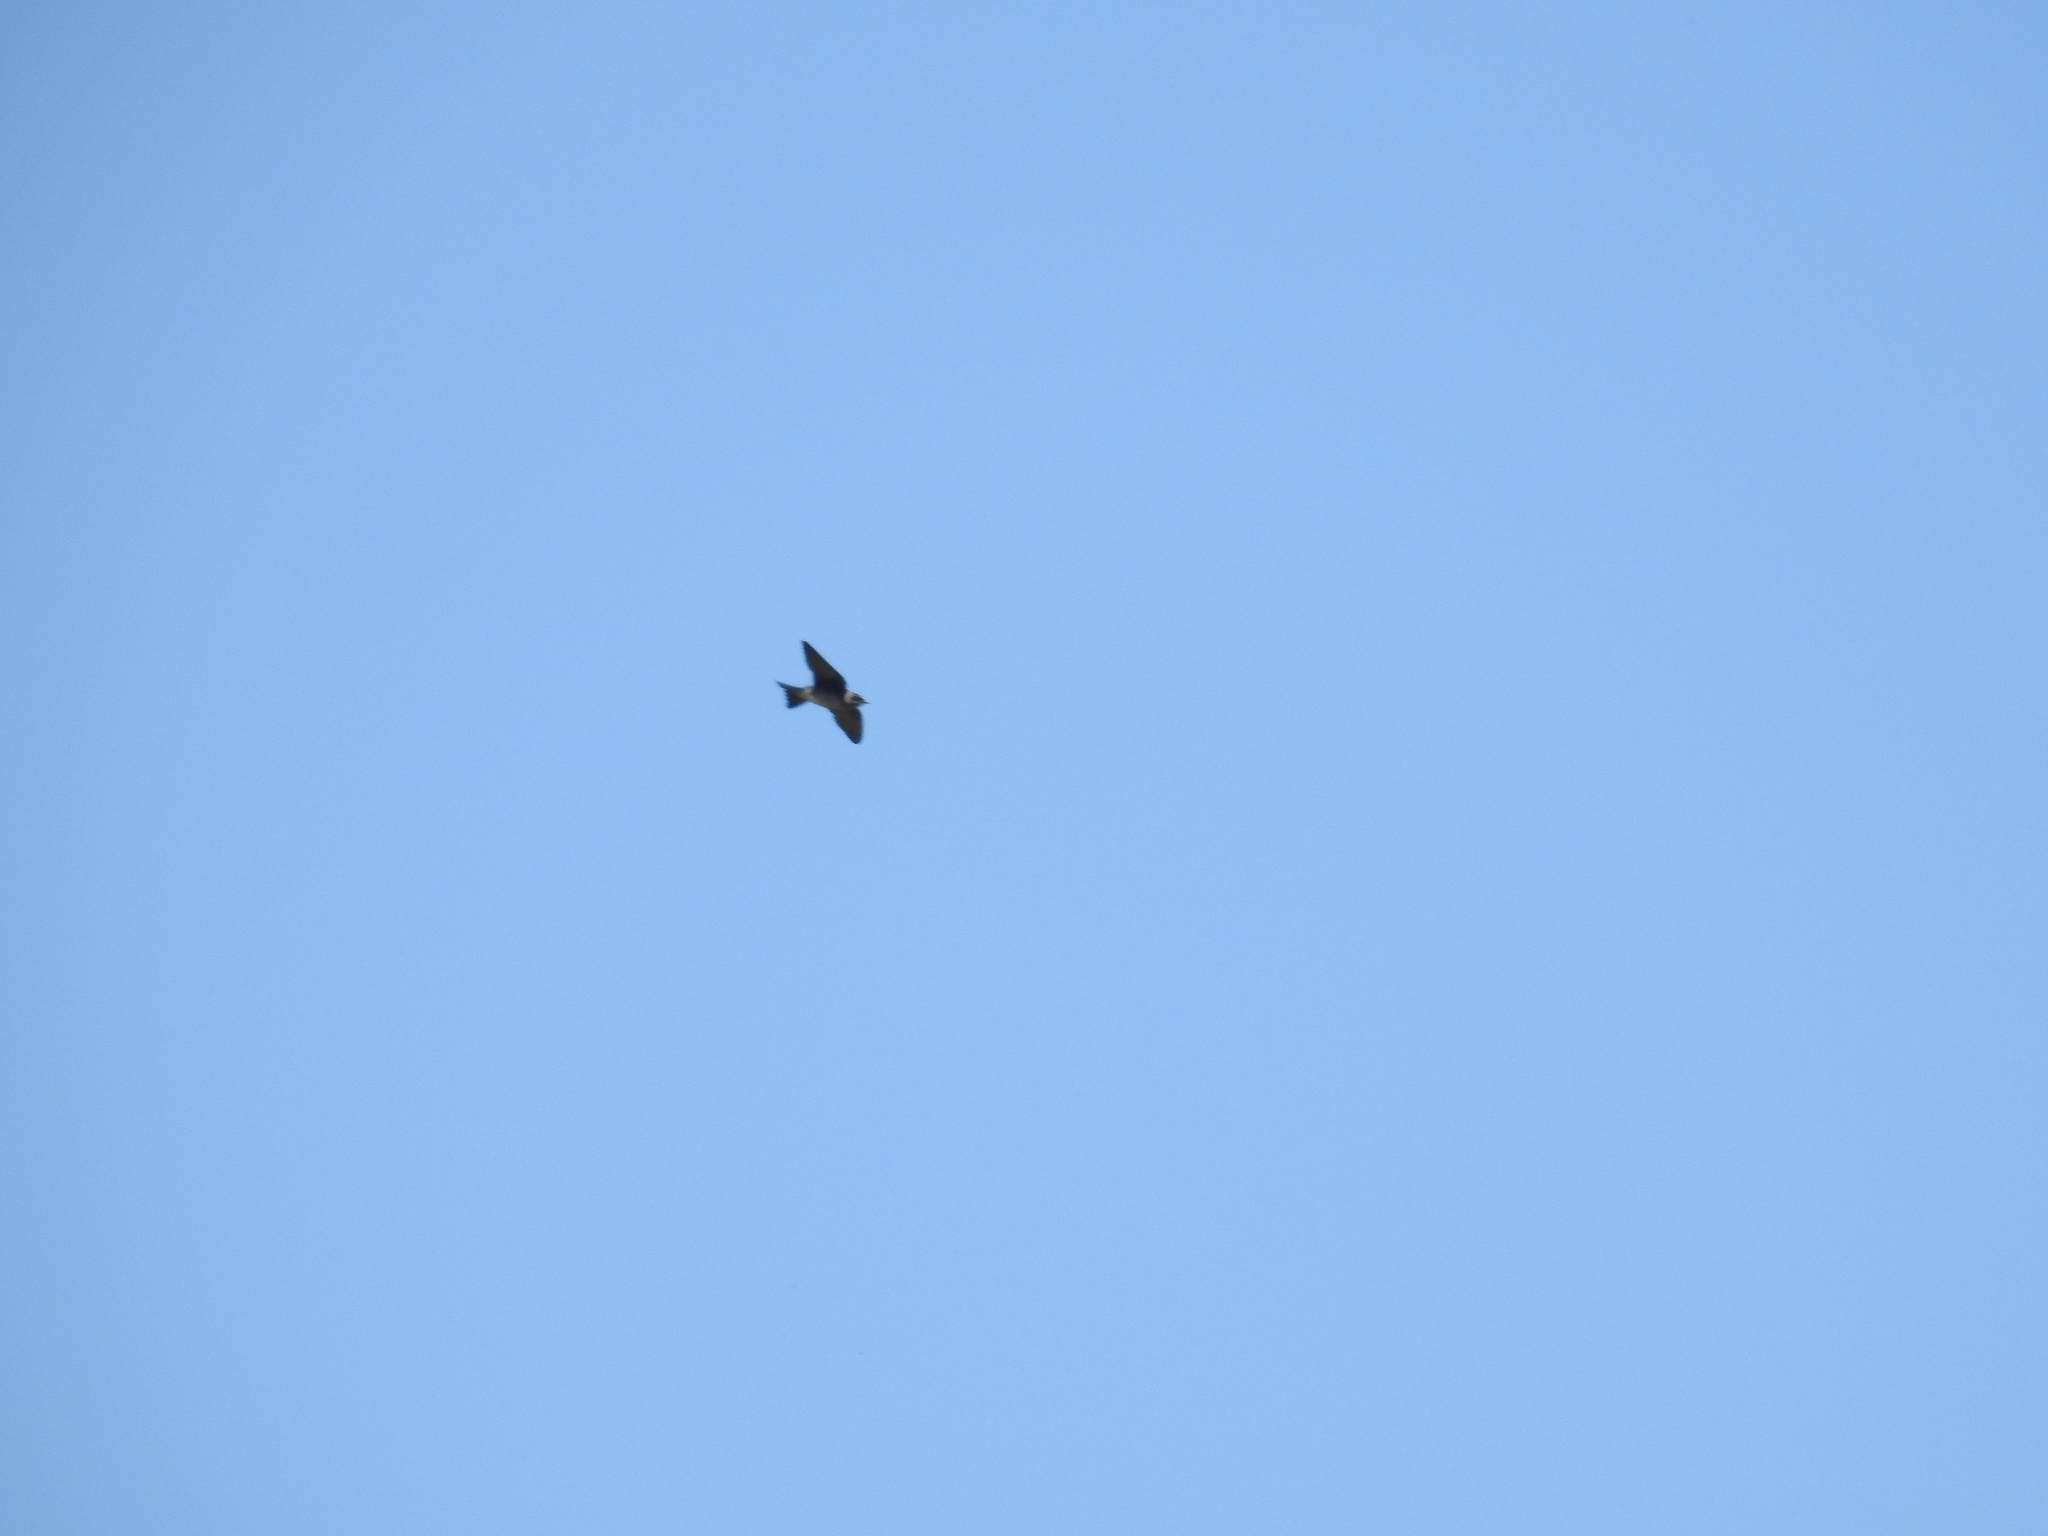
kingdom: Animalia
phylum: Chordata
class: Aves
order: Passeriformes
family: Hirundinidae
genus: Progne
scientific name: Progne subis
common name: Purple martin
